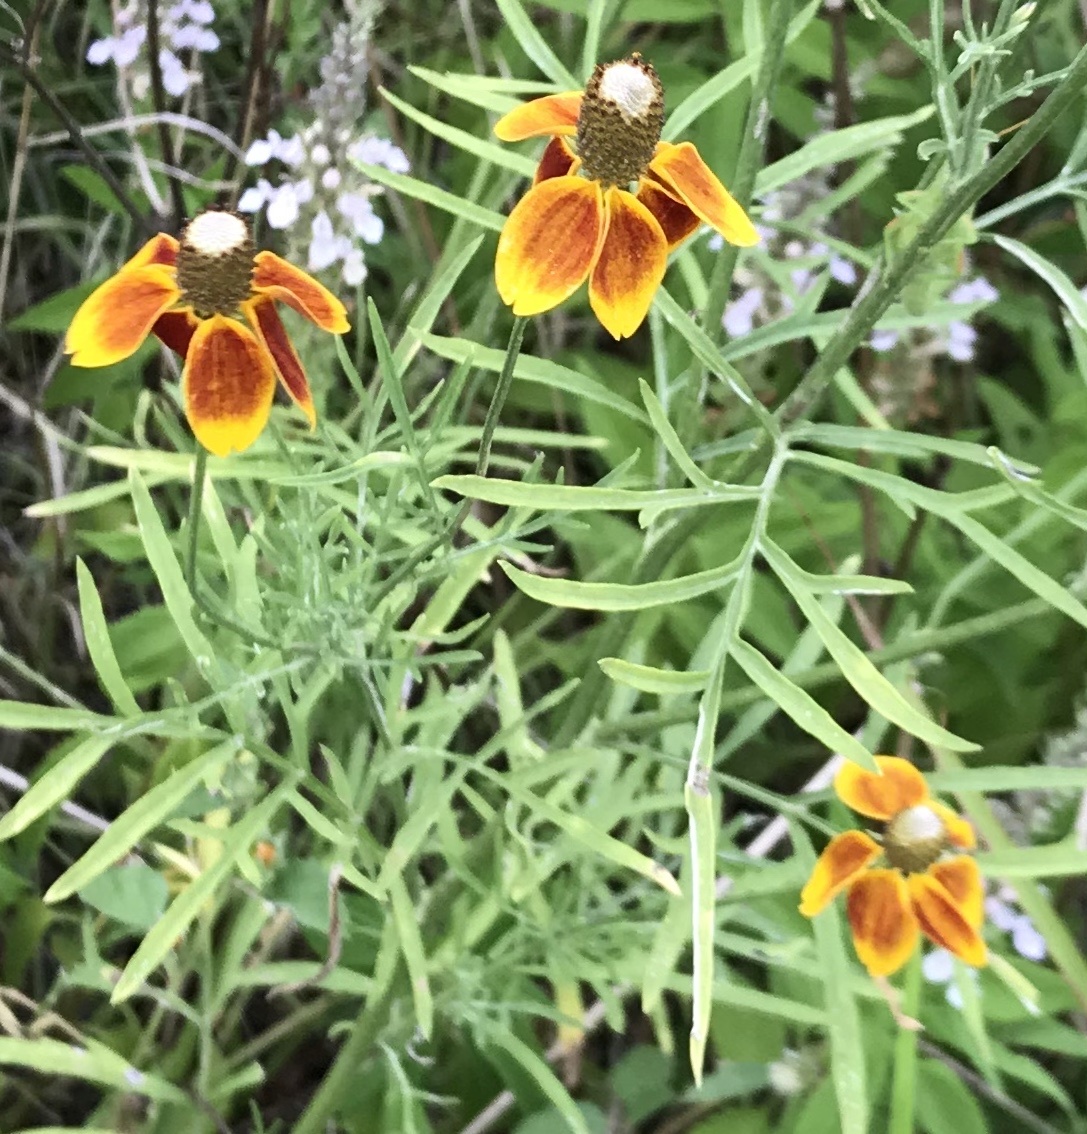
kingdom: Plantae
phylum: Tracheophyta
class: Magnoliopsida
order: Asterales
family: Asteraceae
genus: Ratibida
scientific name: Ratibida columnifera
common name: Prairie coneflower
